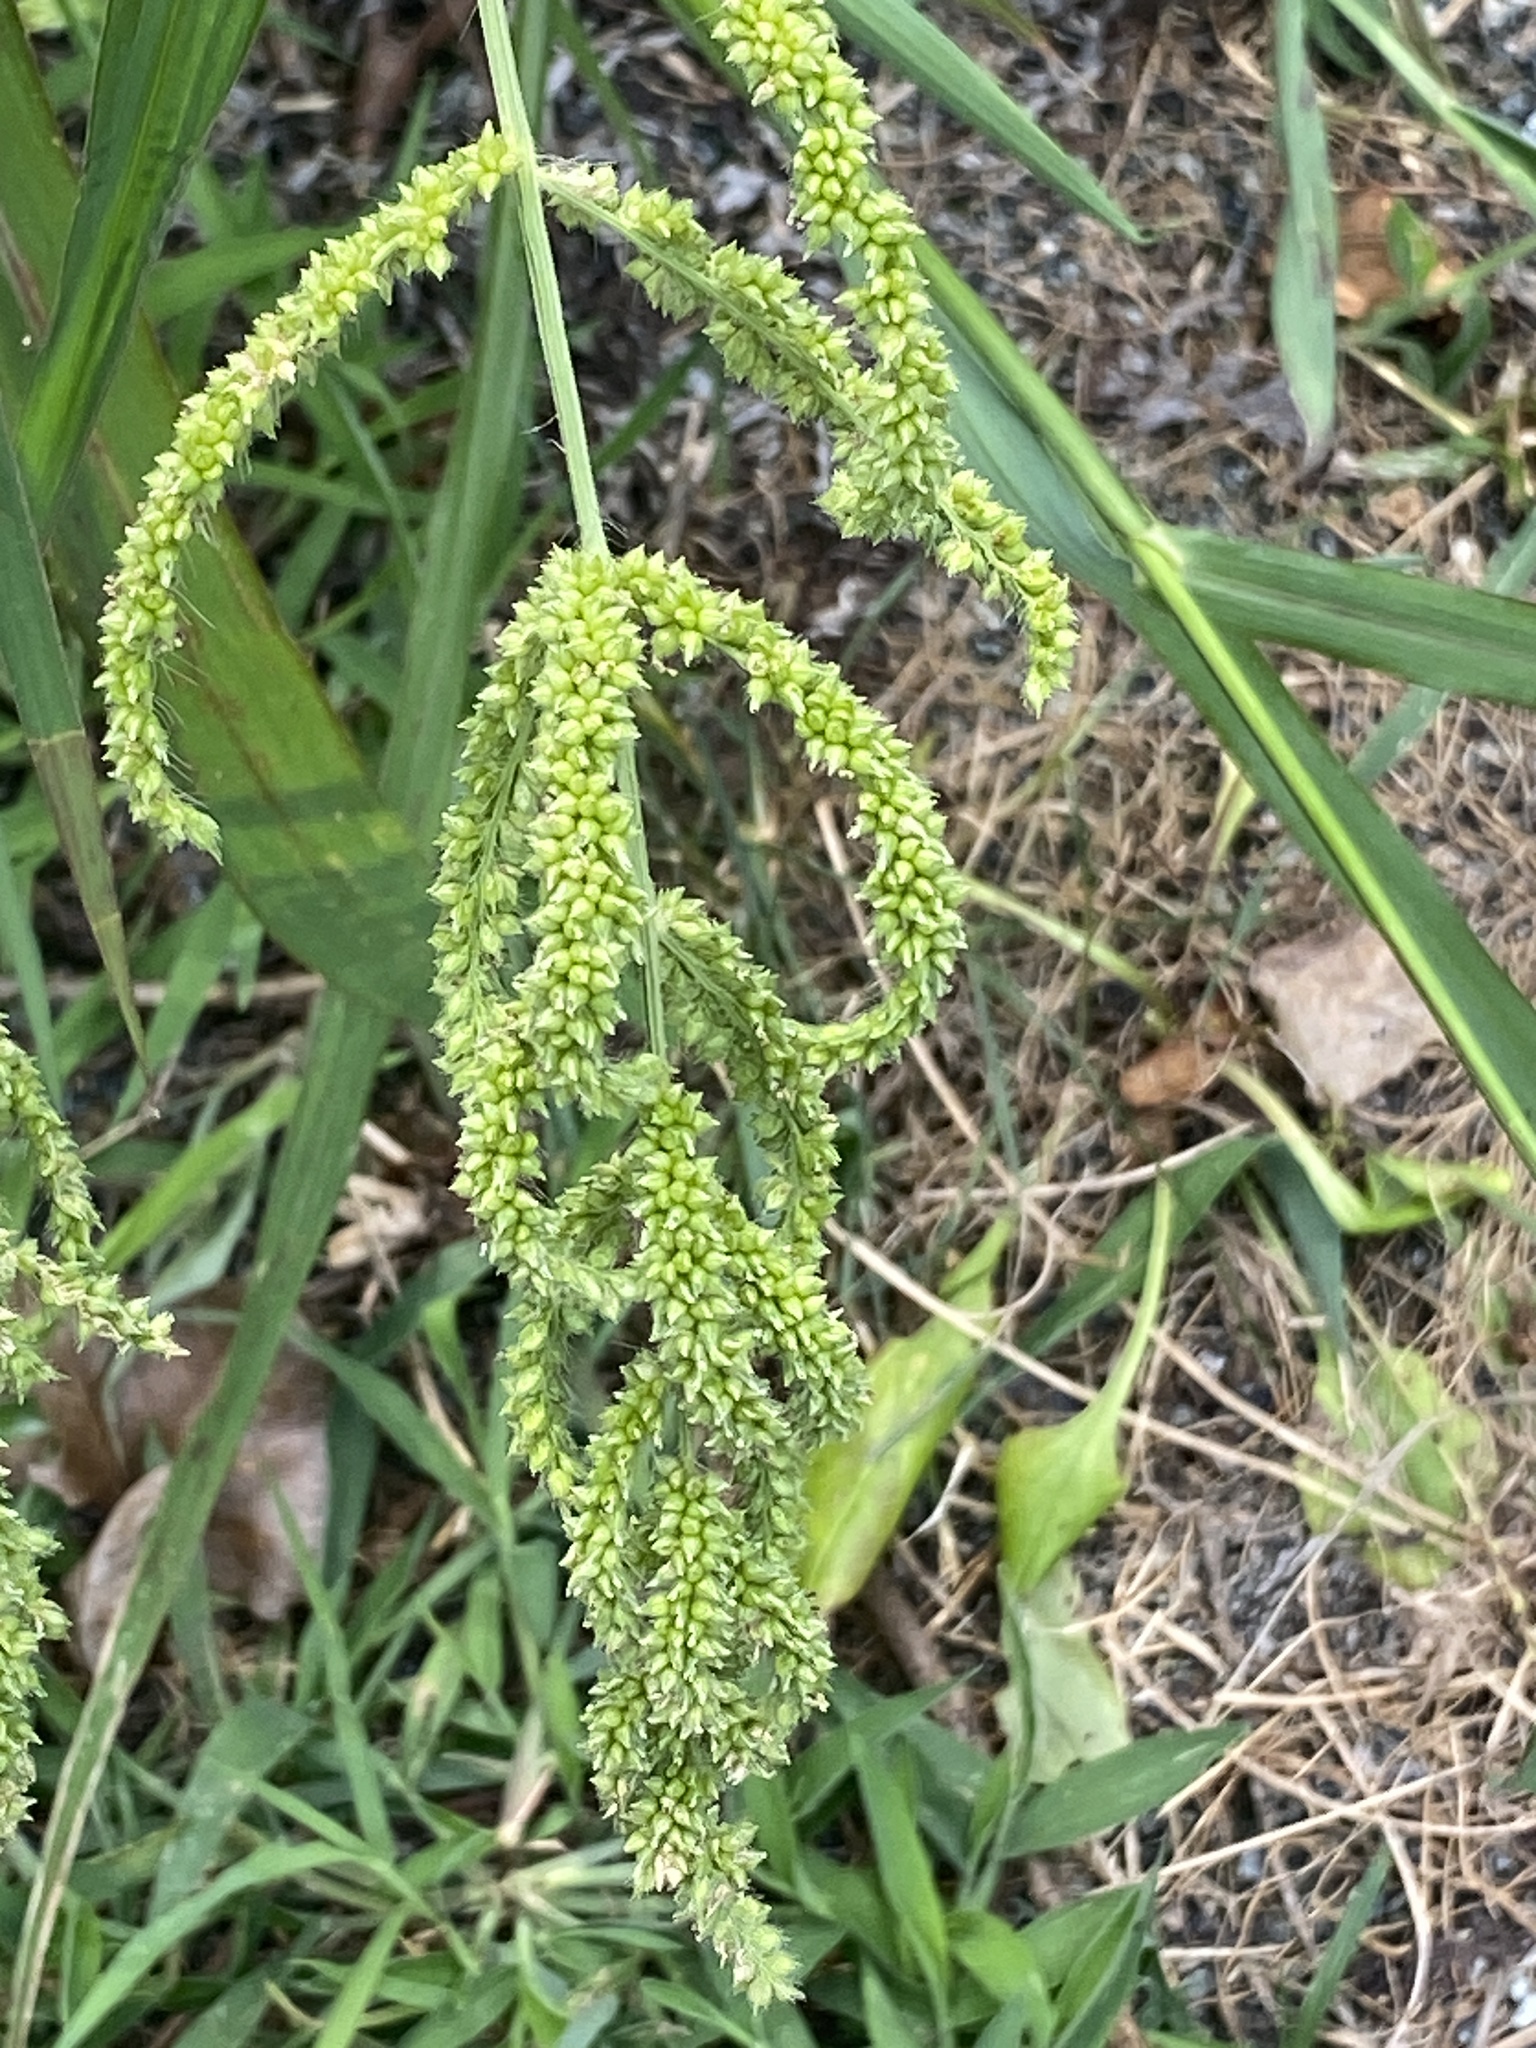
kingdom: Plantae
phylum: Tracheophyta
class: Liliopsida
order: Poales
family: Poaceae
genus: Echinochloa
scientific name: Echinochloa crus-galli
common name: Cockspur
